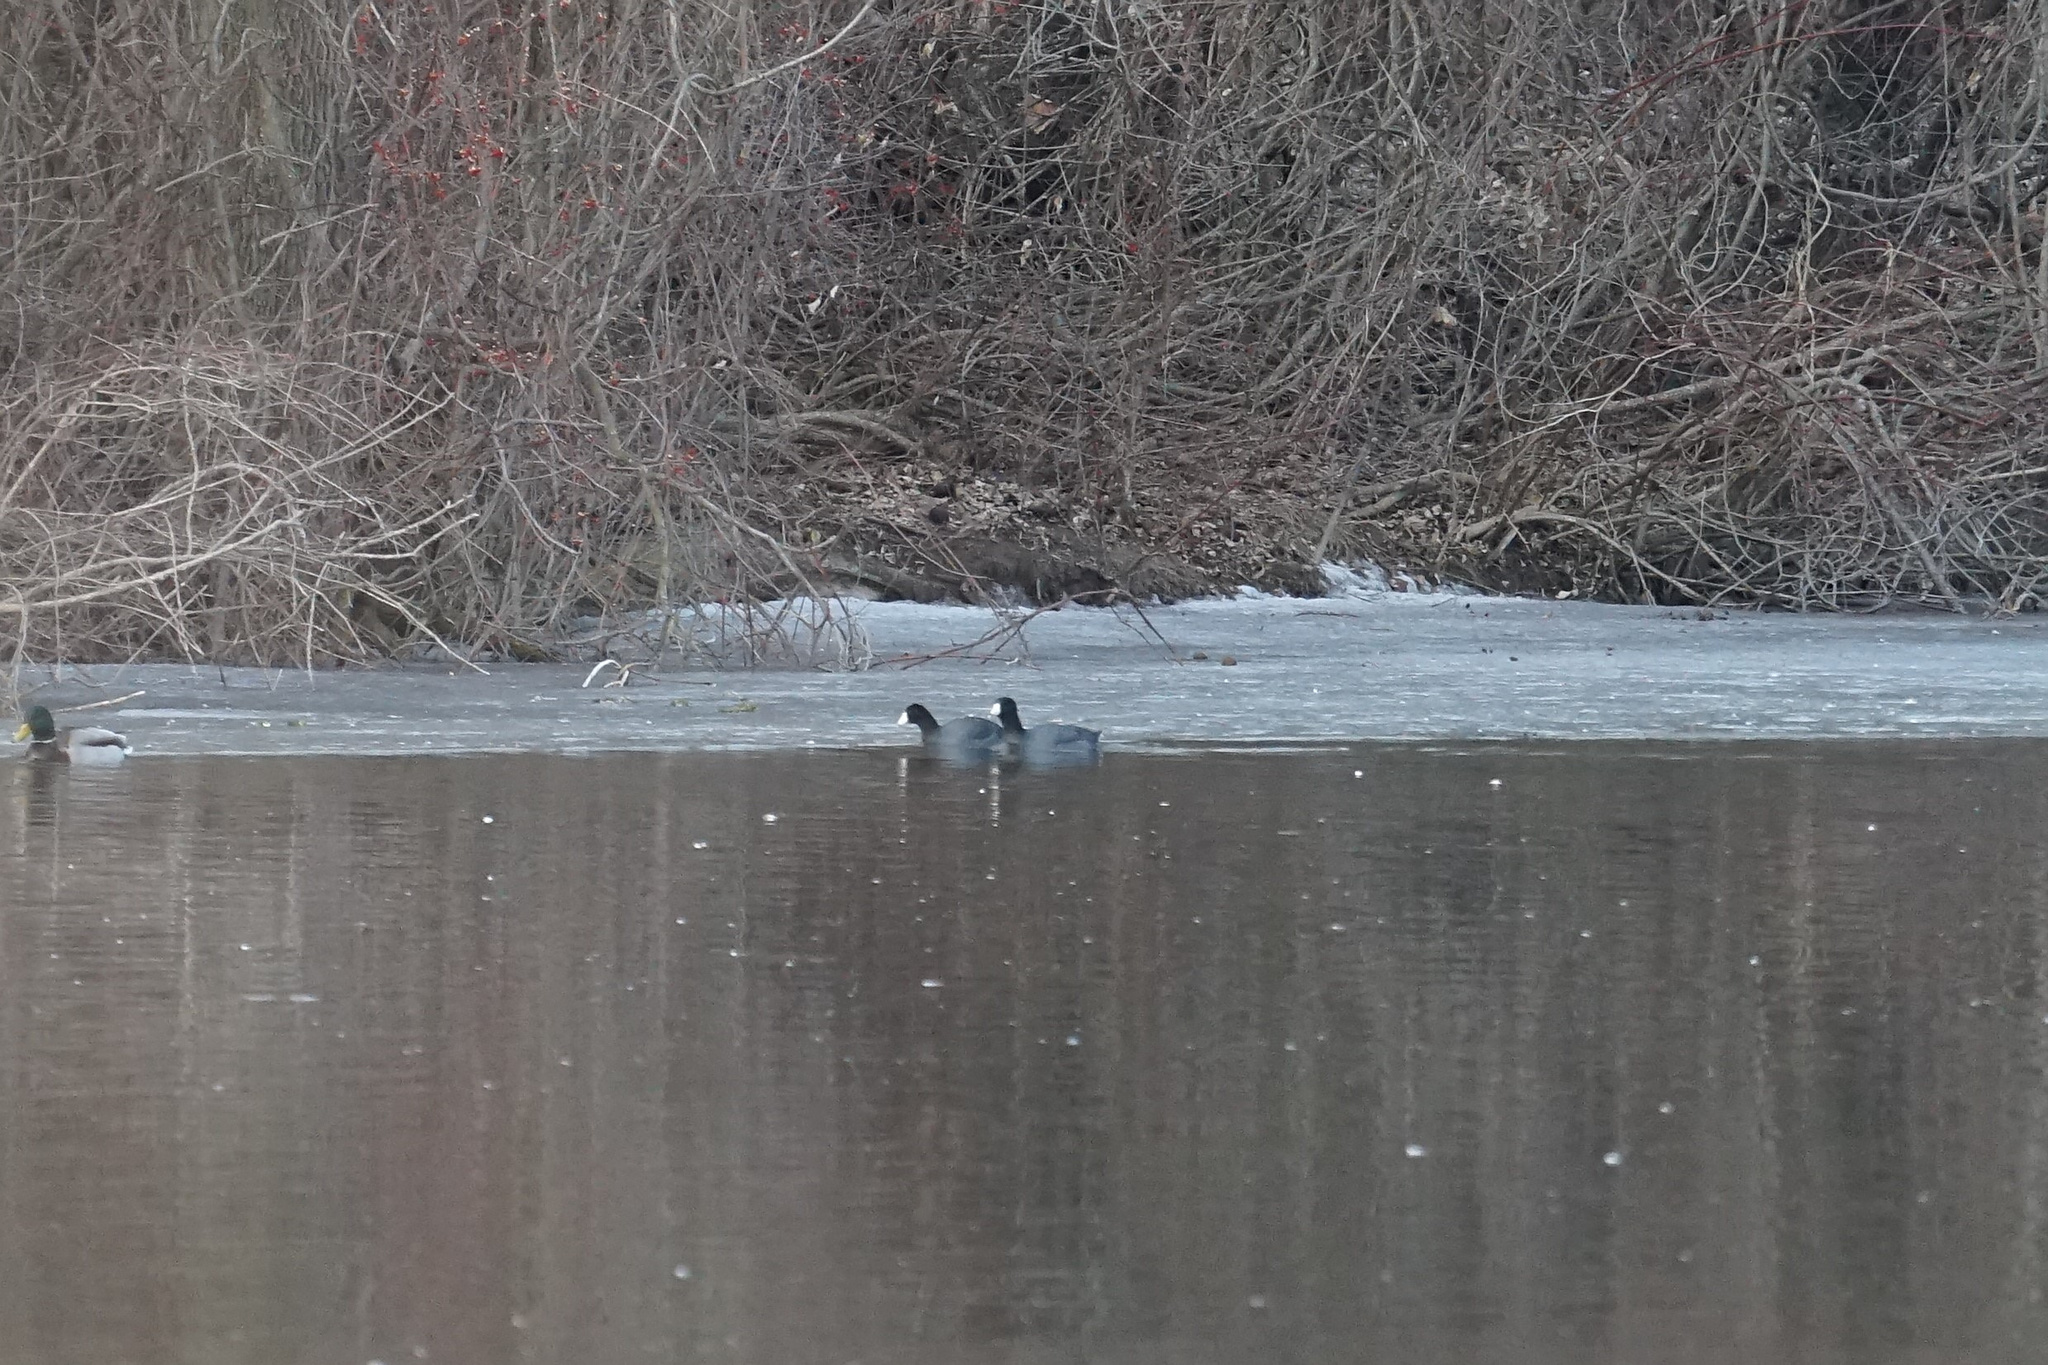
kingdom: Animalia
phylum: Chordata
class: Aves
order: Gruiformes
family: Rallidae
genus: Fulica
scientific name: Fulica americana
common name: American coot
